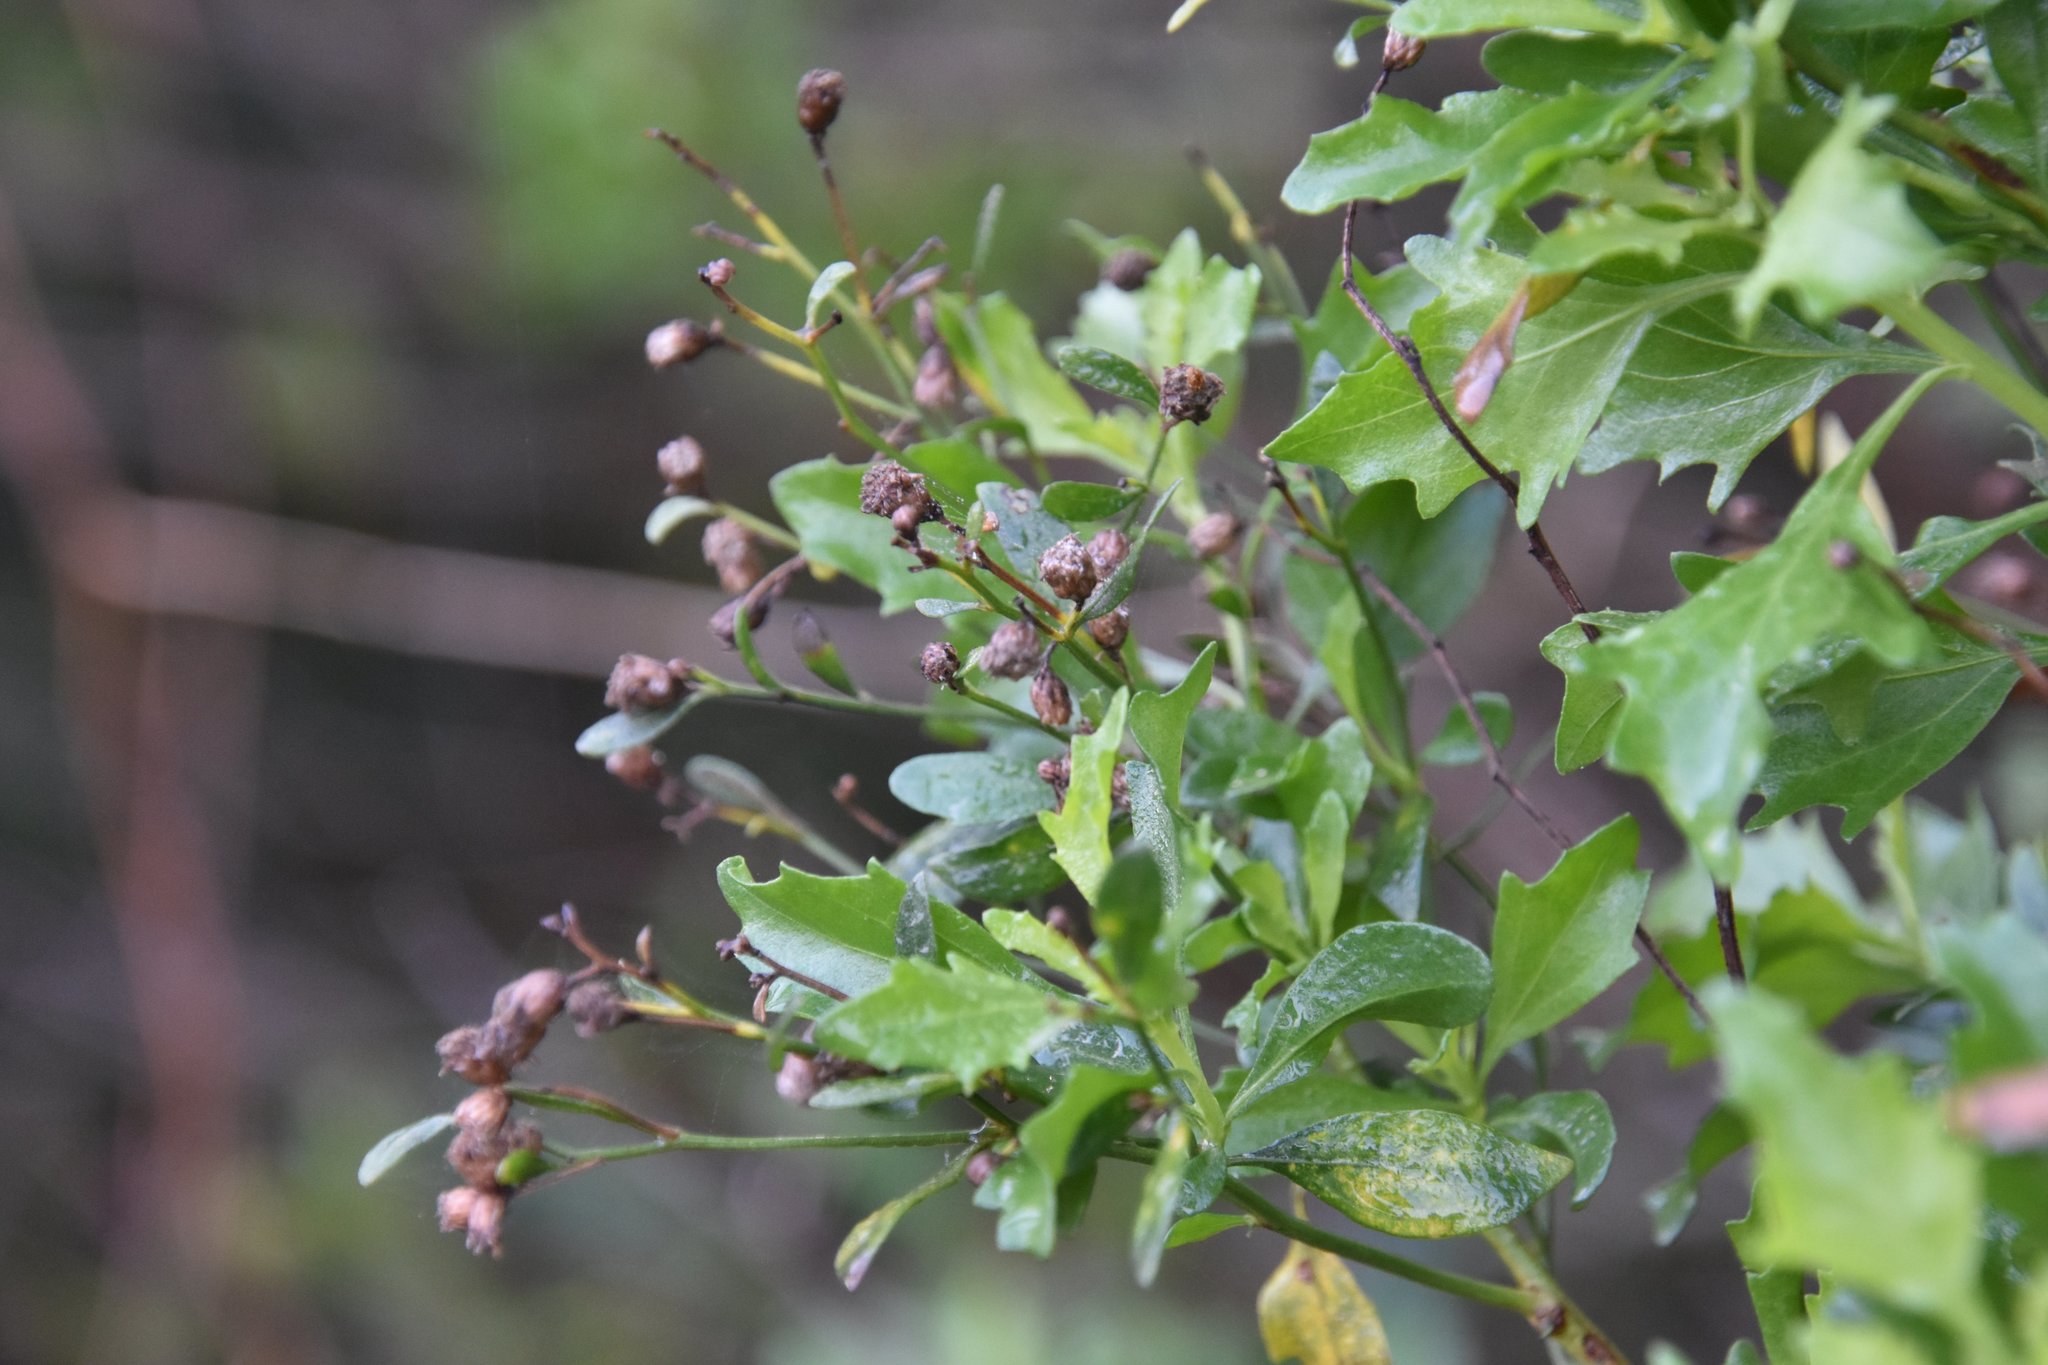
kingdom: Plantae
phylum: Tracheophyta
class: Magnoliopsida
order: Asterales
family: Asteraceae
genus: Baccharis
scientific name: Baccharis halimifolia
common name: Eastern baccharis
